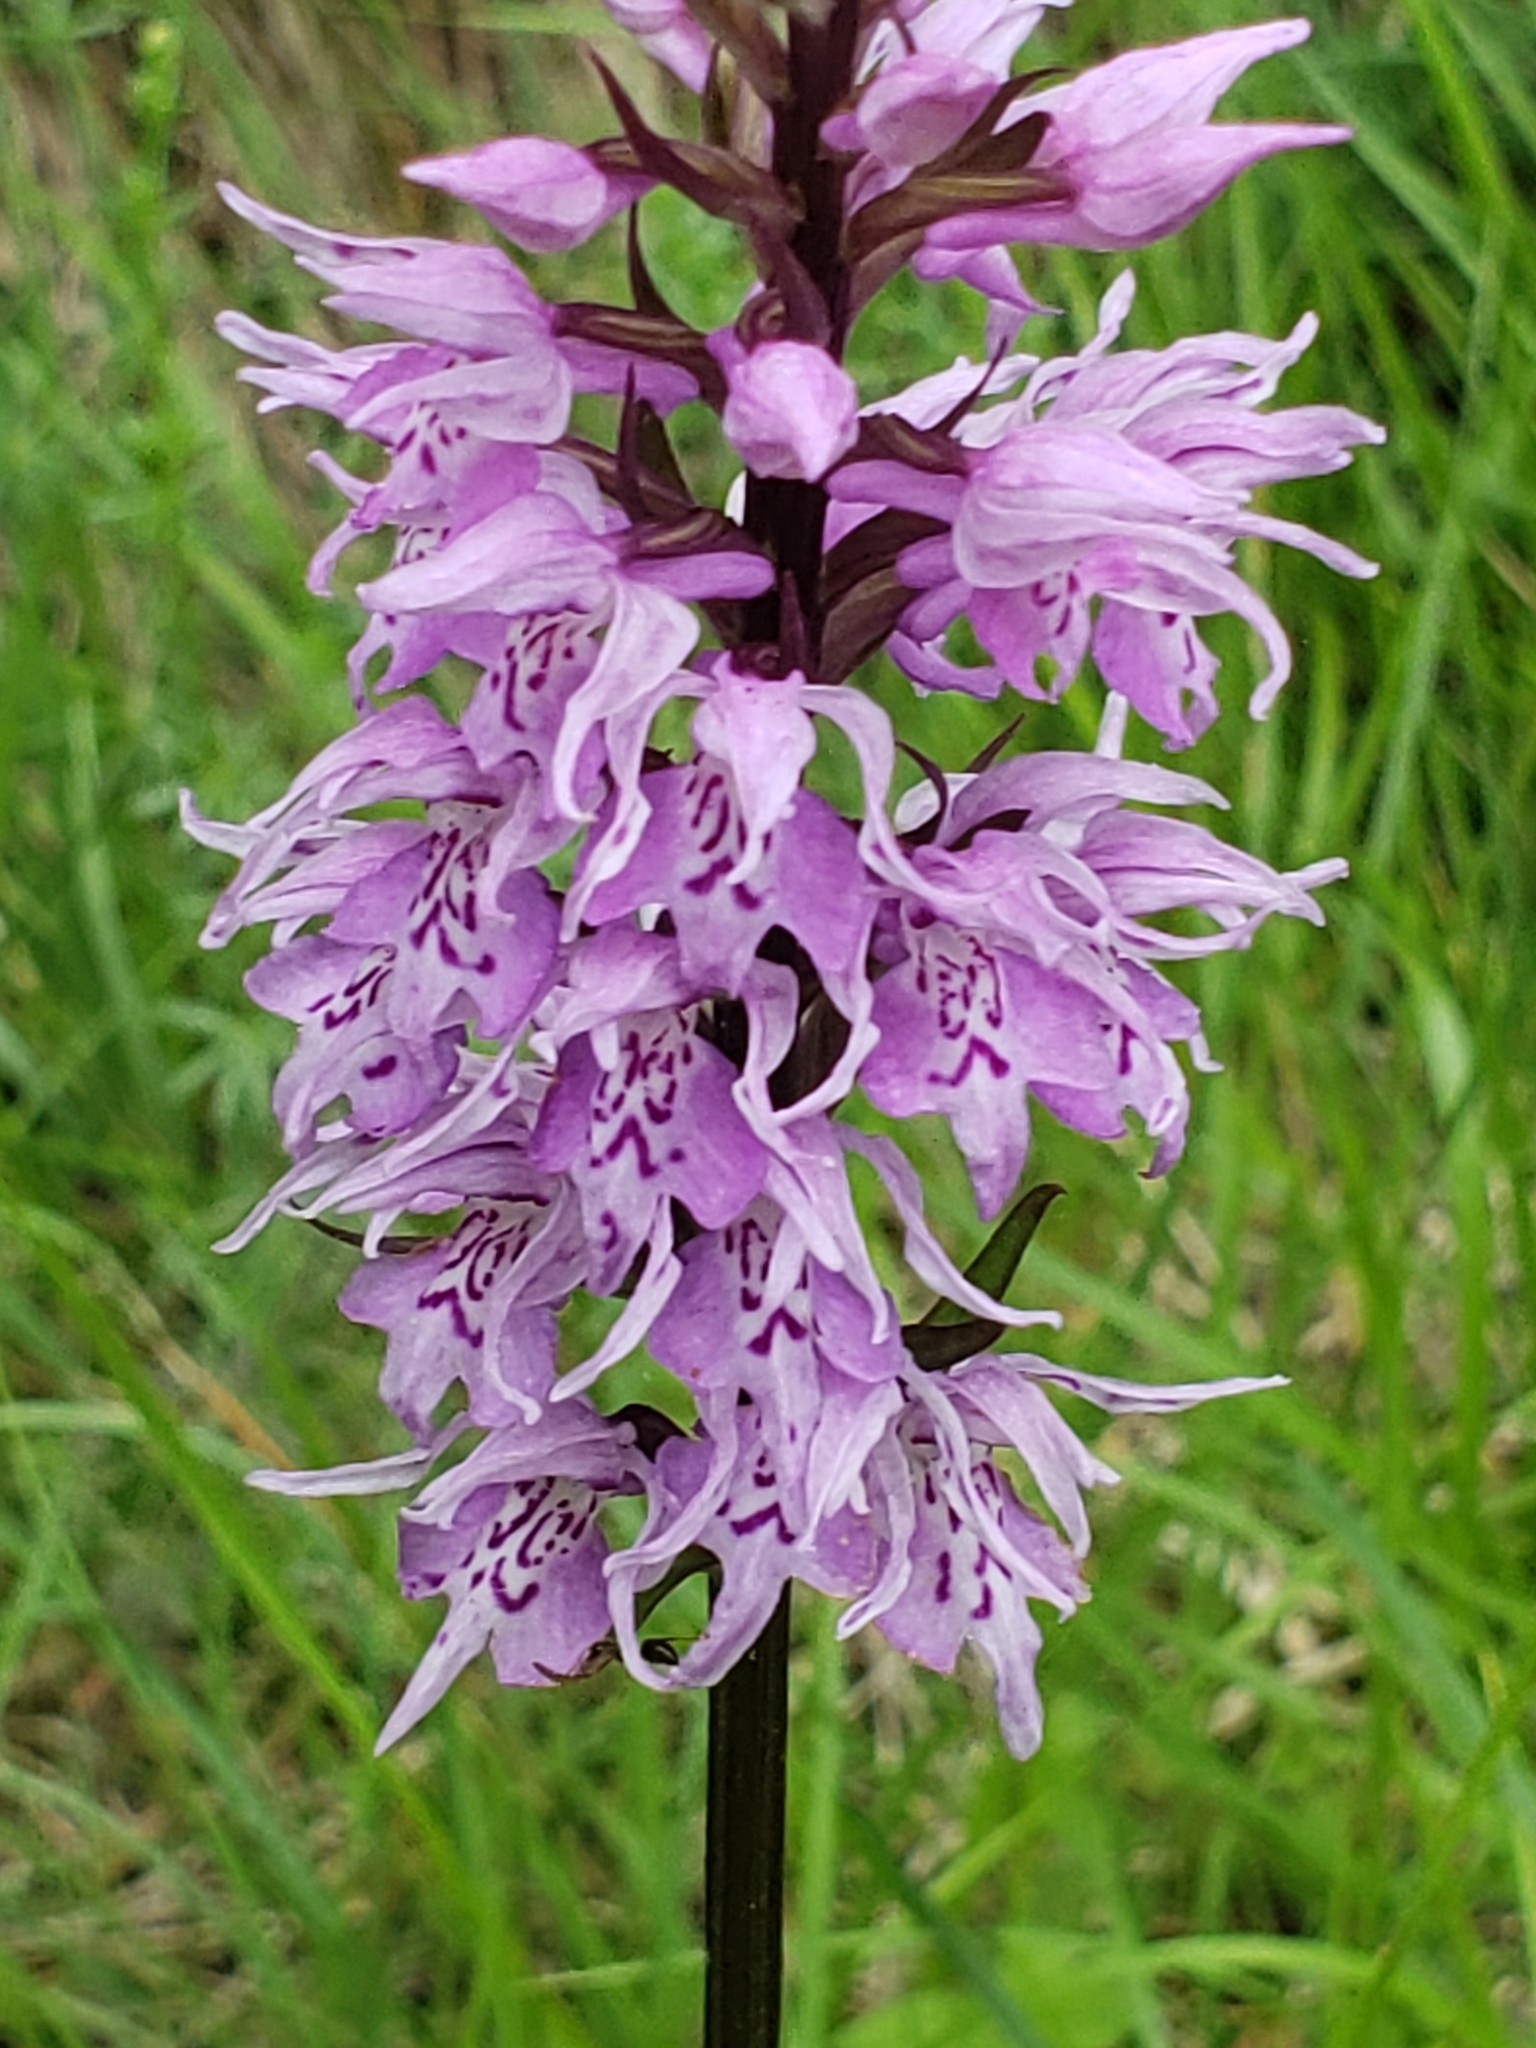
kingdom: Plantae
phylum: Tracheophyta
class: Liliopsida
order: Asparagales
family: Orchidaceae
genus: Dactylorhiza
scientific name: Dactylorhiza maculata
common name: Heath spotted-orchid
